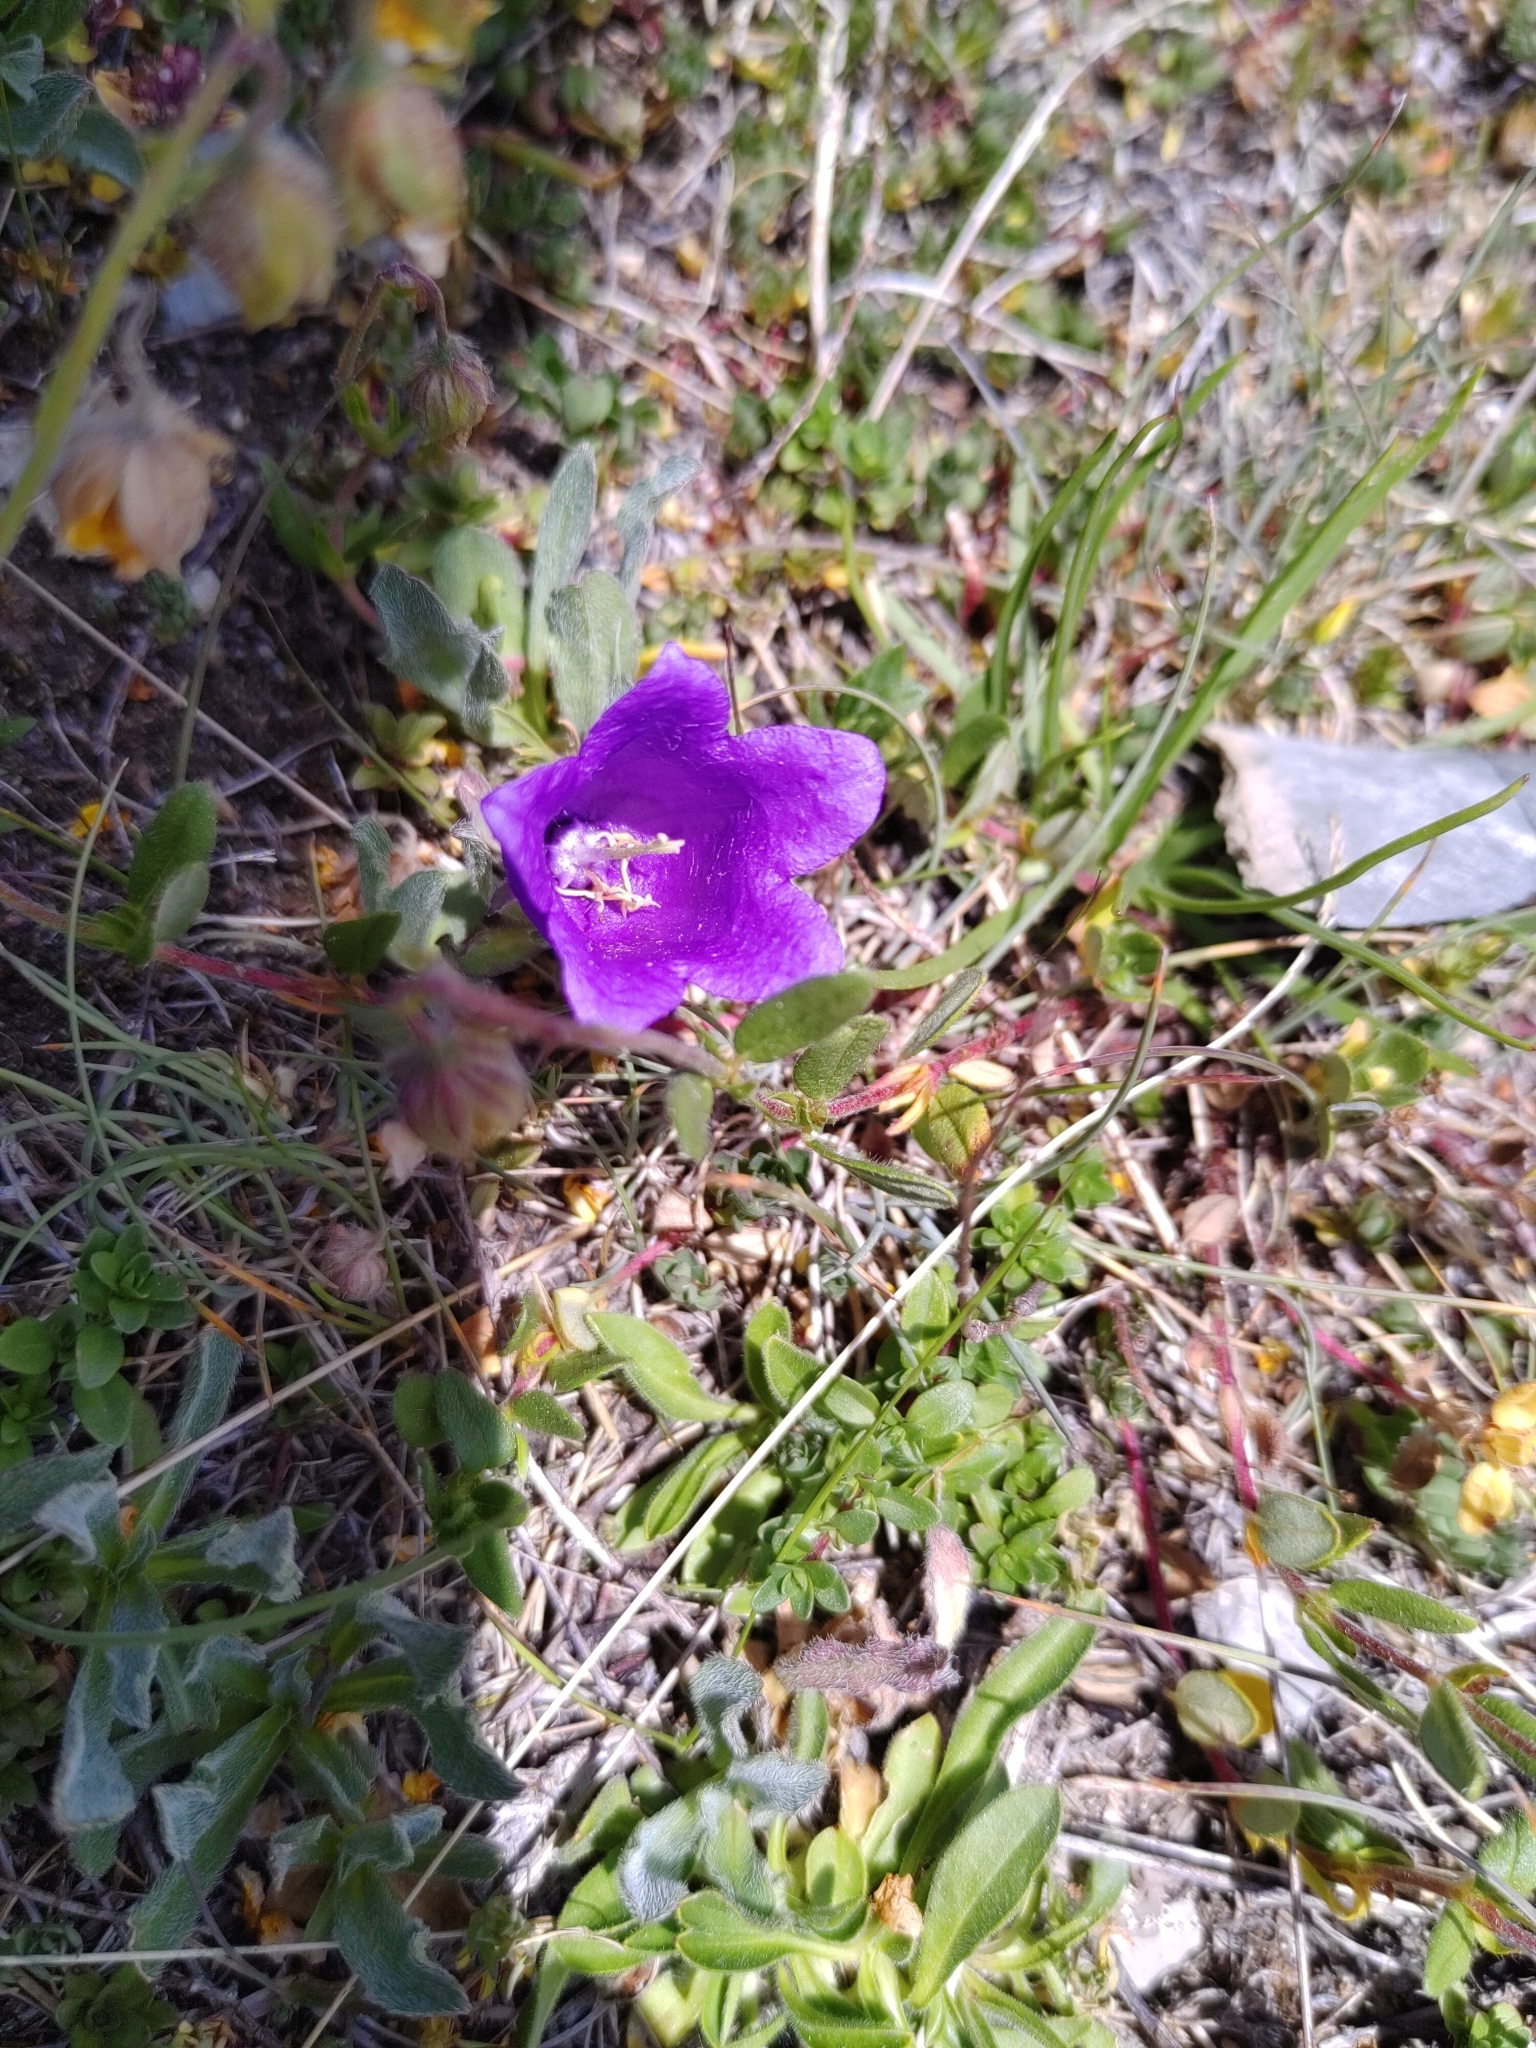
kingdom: Plantae
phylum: Tracheophyta
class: Magnoliopsida
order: Asterales
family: Campanulaceae
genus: Campanula
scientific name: Campanula alpestris
